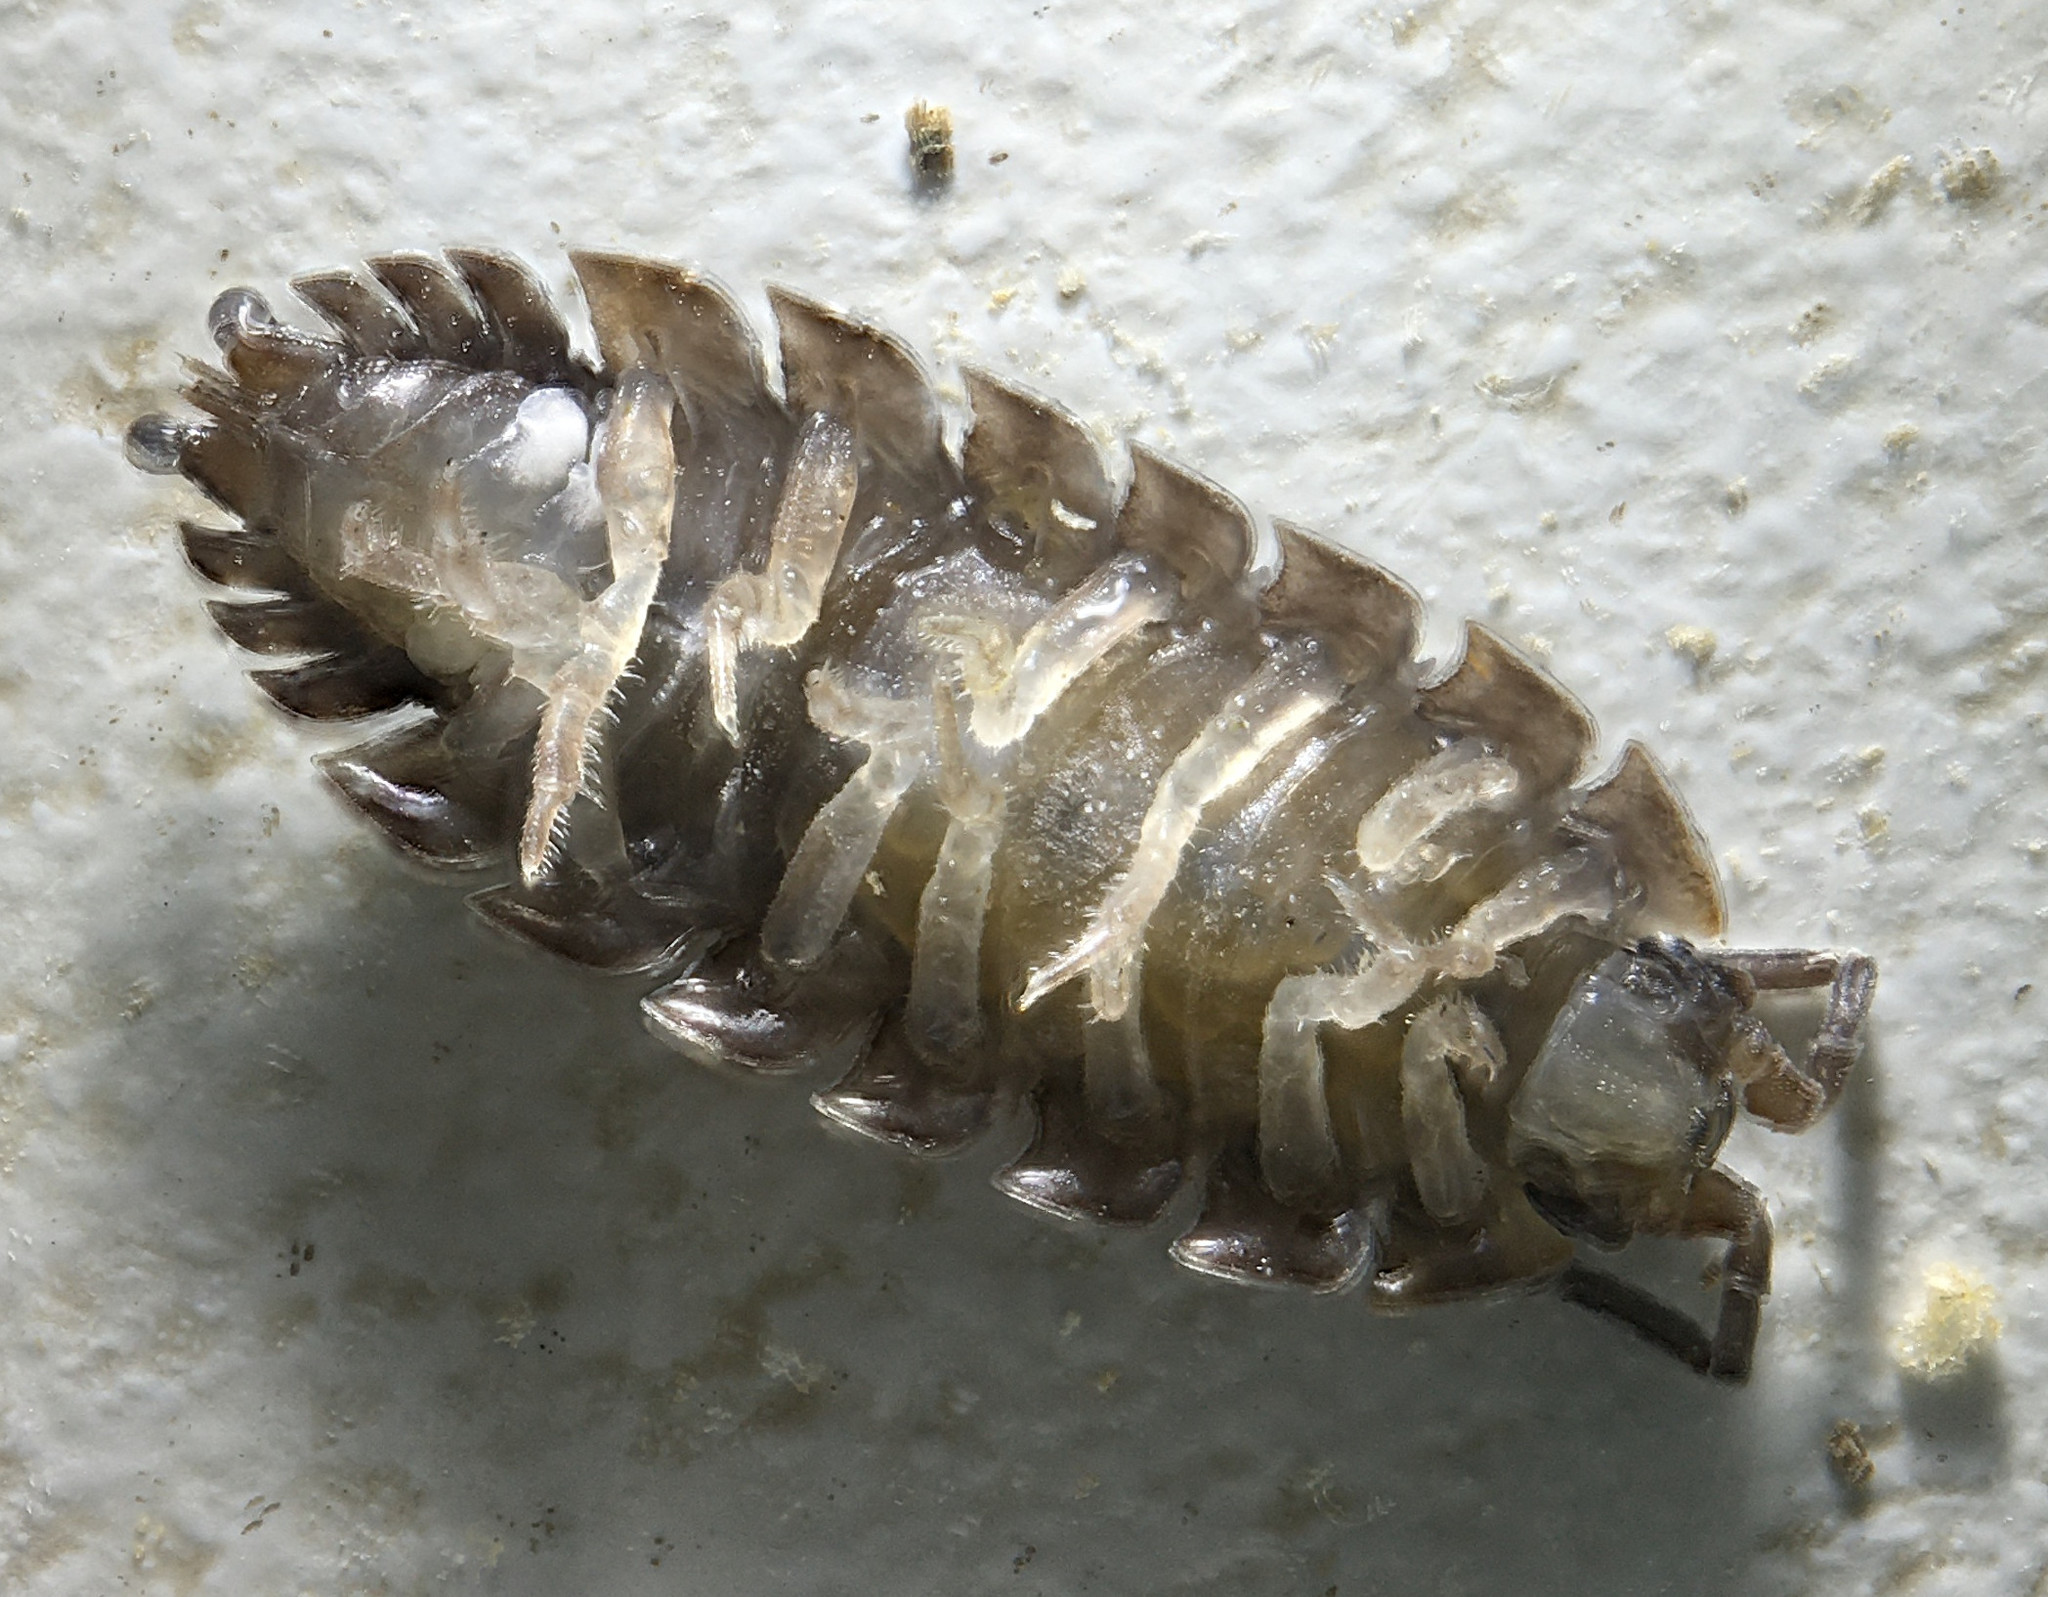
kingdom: Animalia
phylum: Arthropoda
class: Malacostraca
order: Isopoda
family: Porcellionidae
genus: Porcellio
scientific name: Porcellio scaber
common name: Common rough woodlouse
